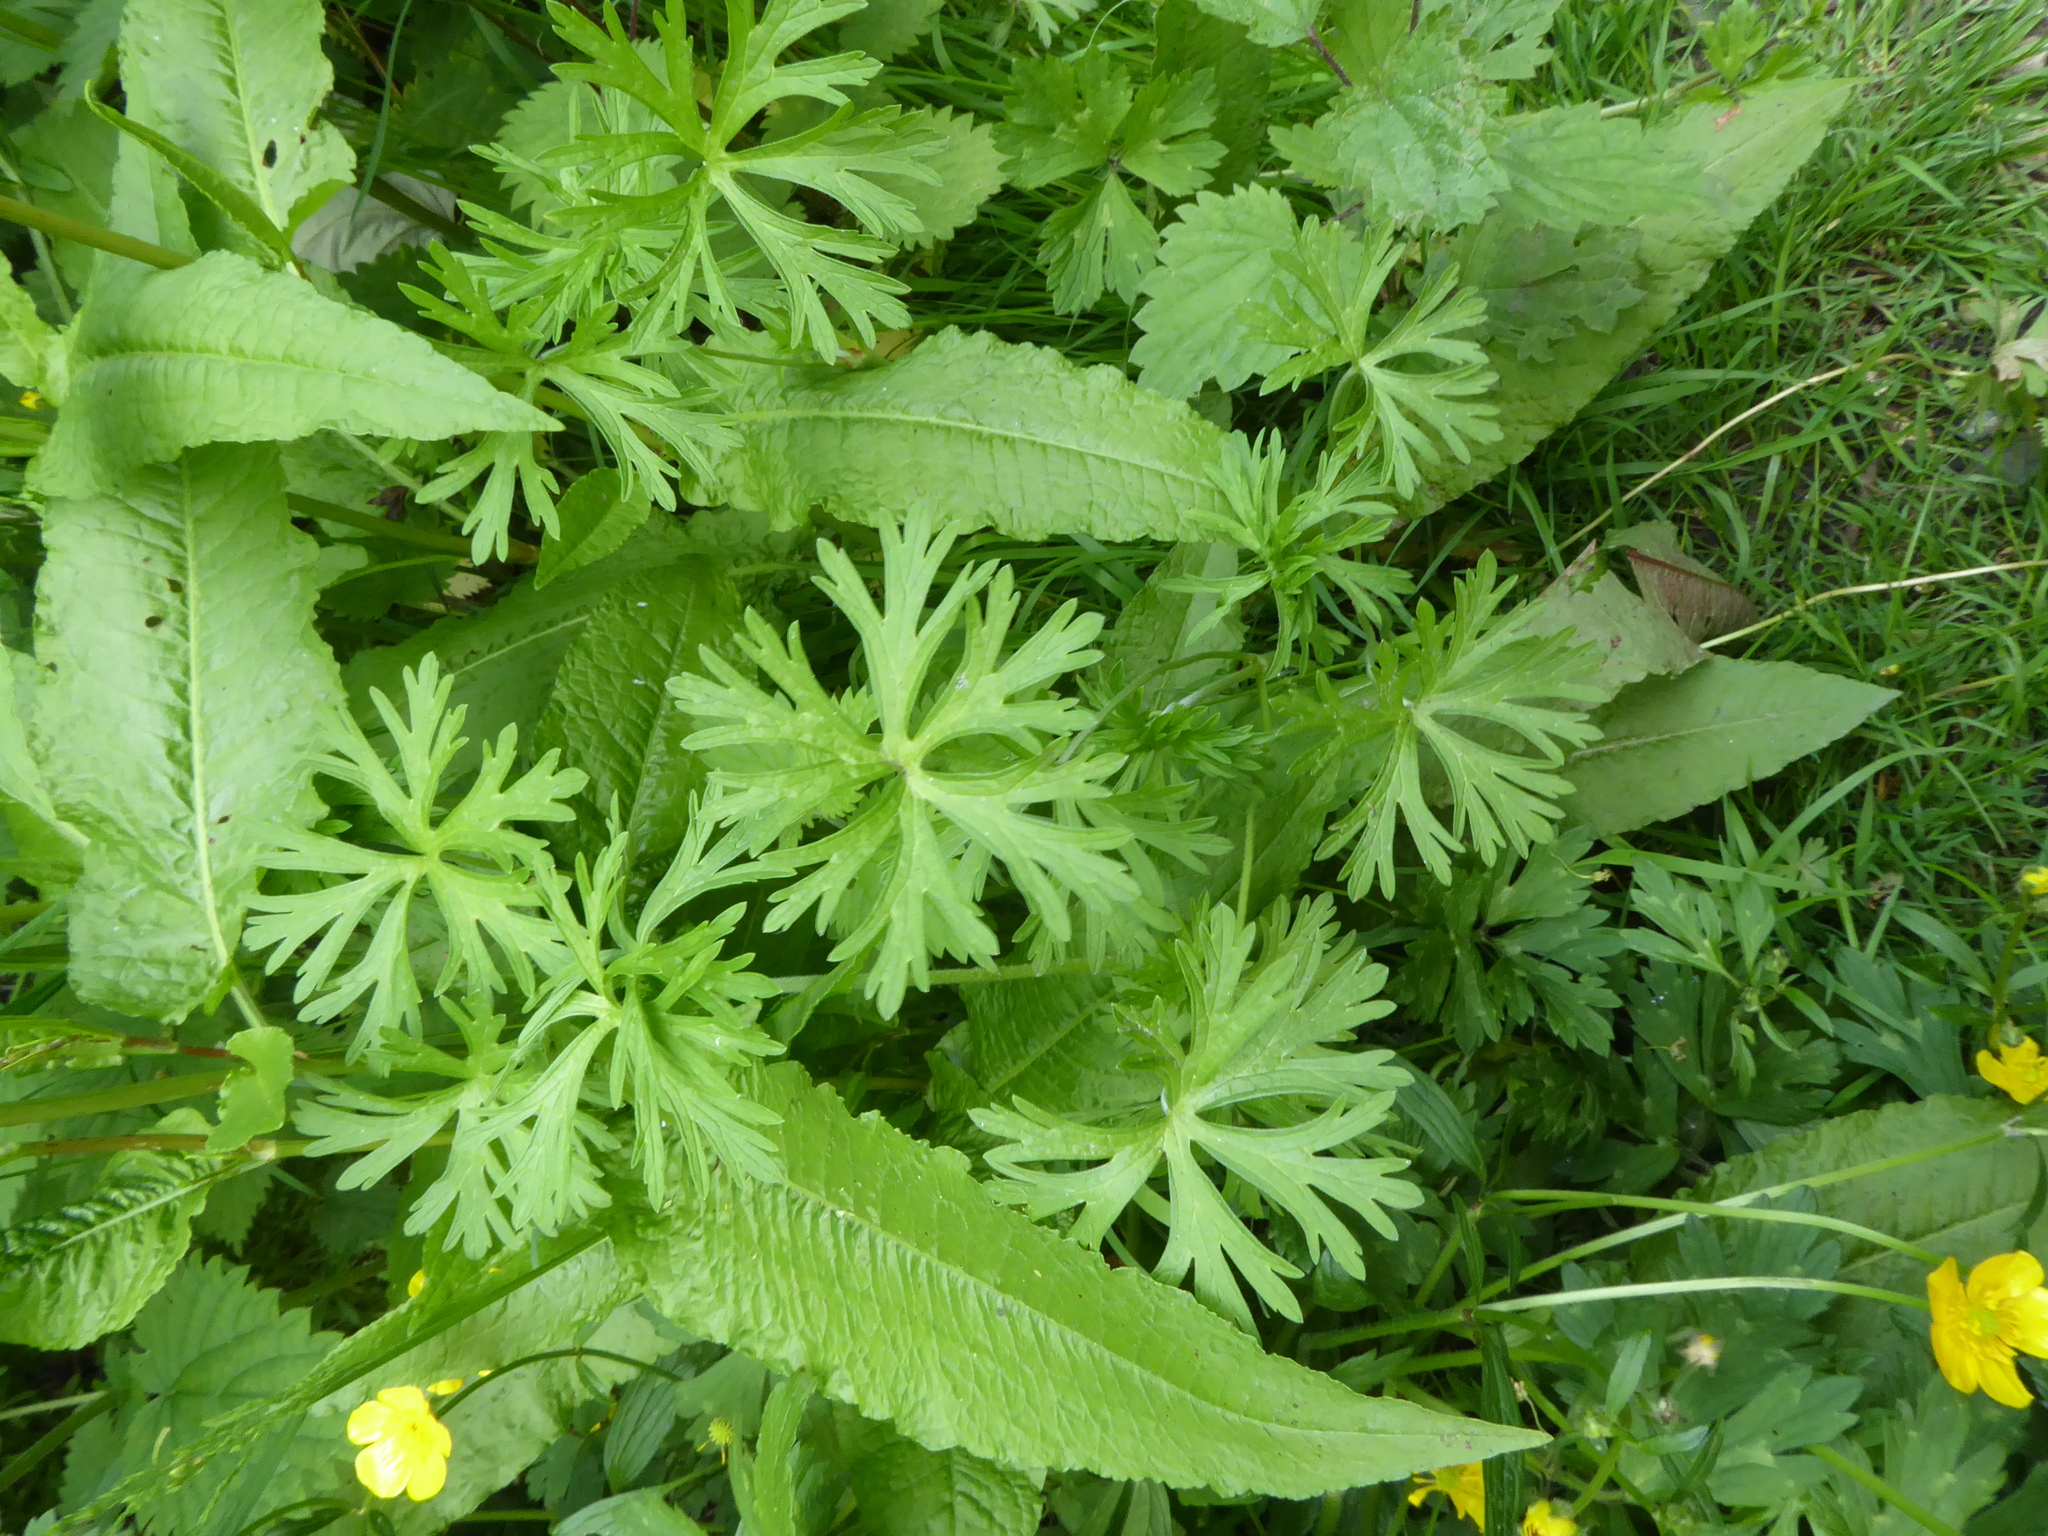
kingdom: Plantae
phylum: Tracheophyta
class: Magnoliopsida
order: Geraniales
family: Geraniaceae
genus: Geranium
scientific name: Geranium dissectum
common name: Cut-leaved crane's-bill
